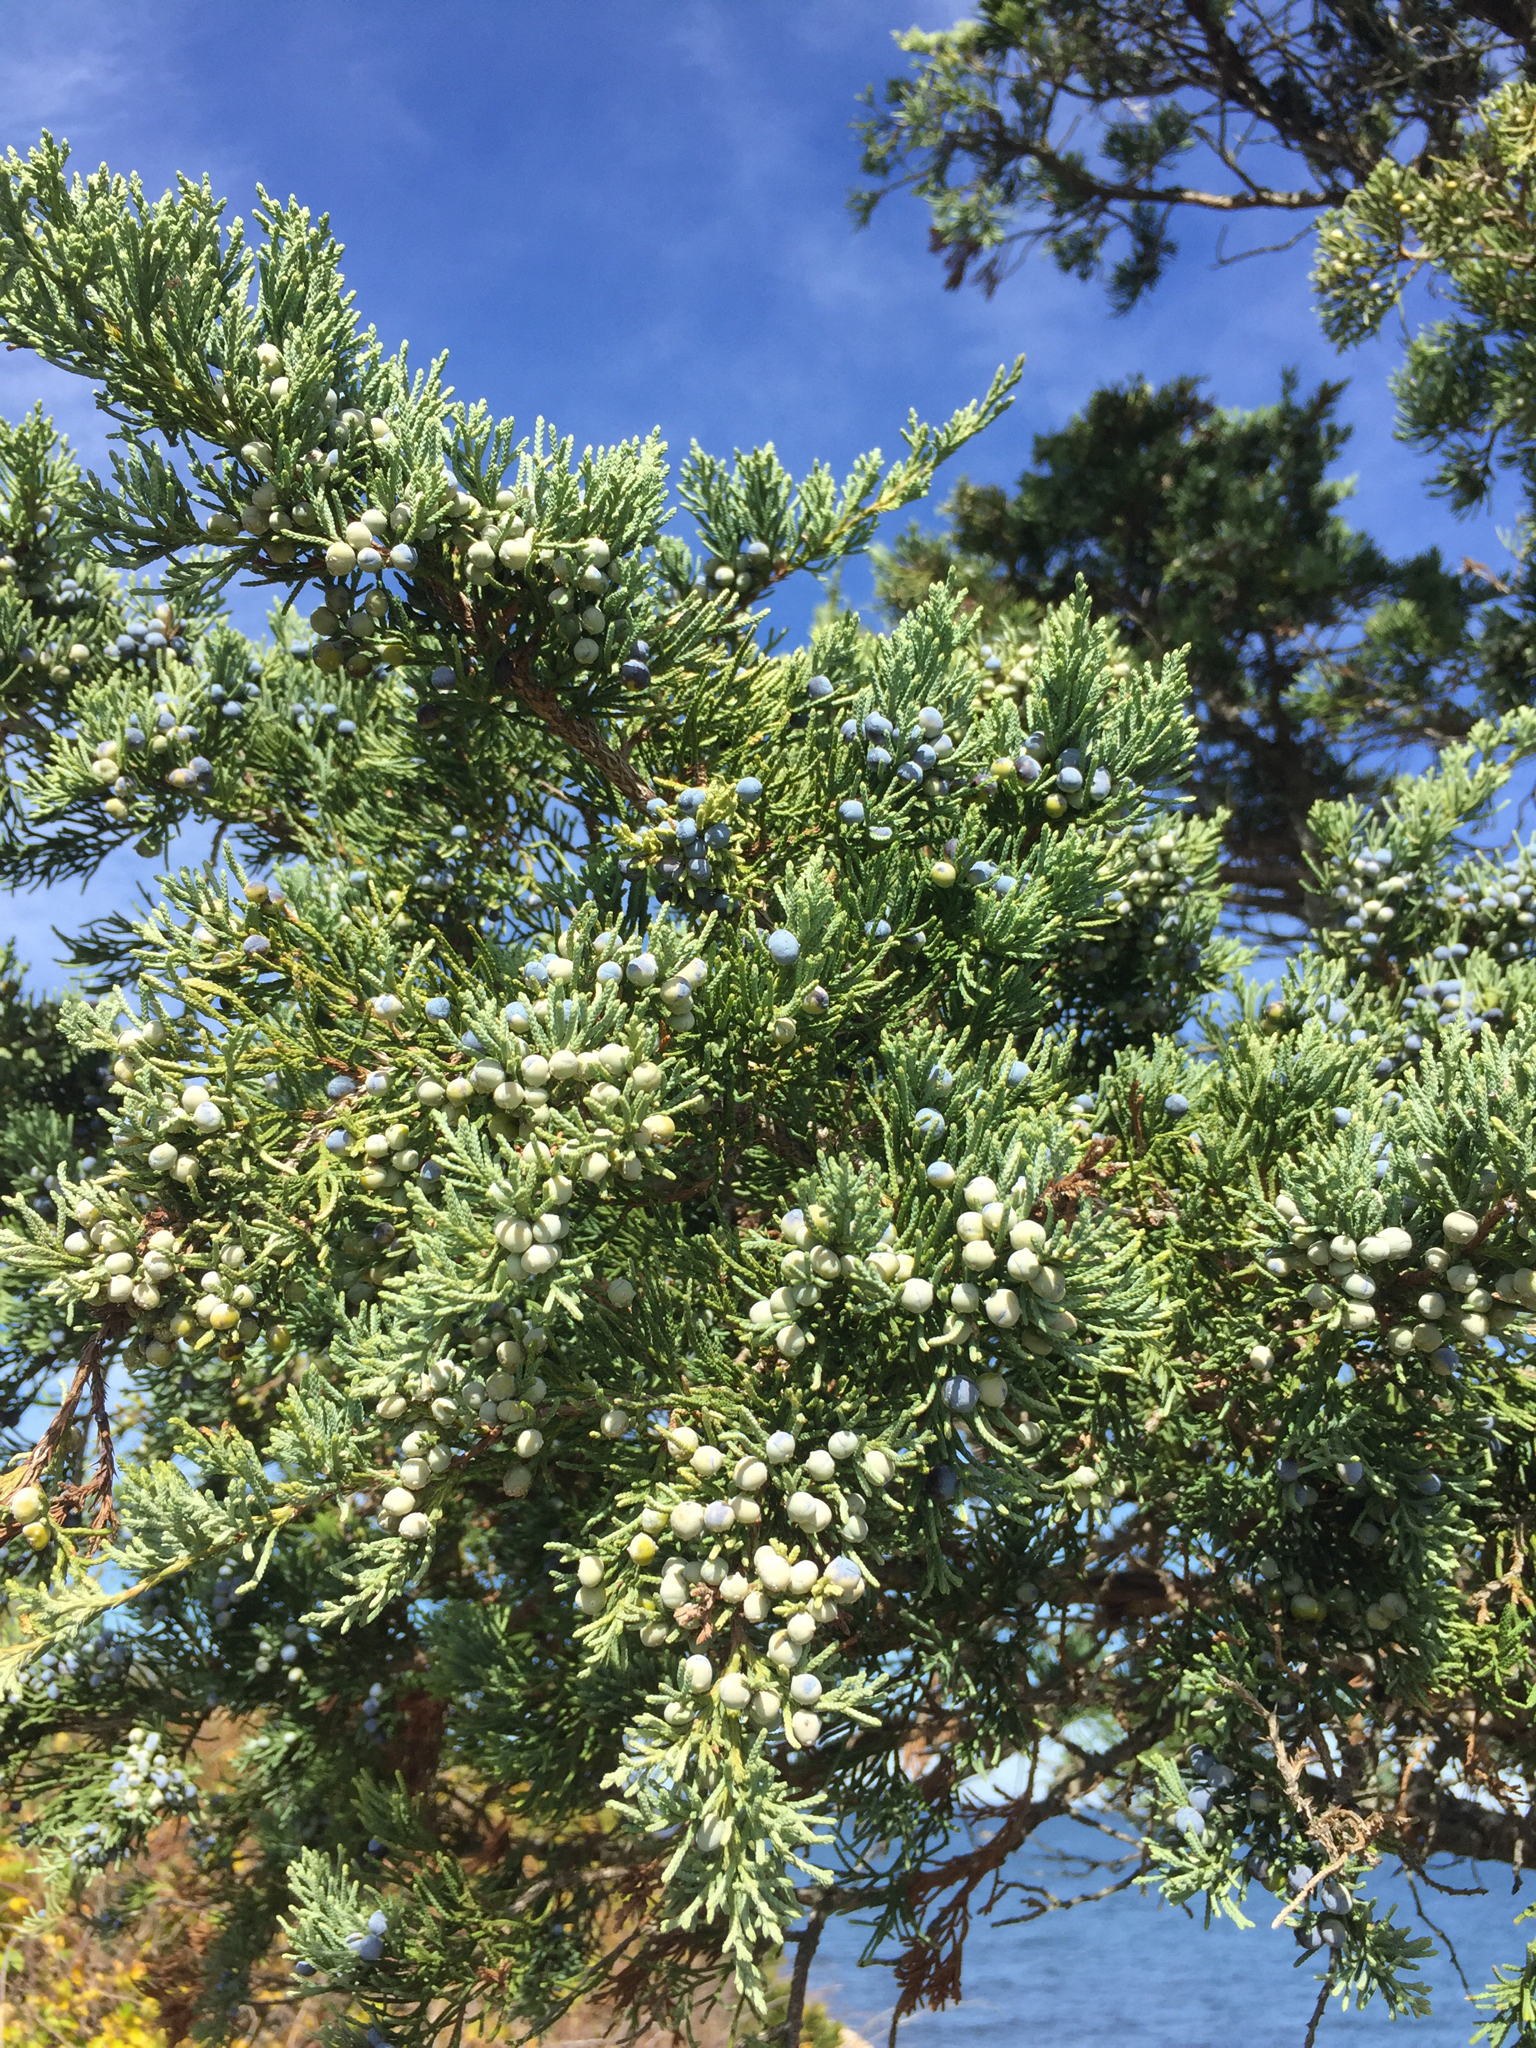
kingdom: Plantae
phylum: Tracheophyta
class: Pinopsida
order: Pinales
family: Cupressaceae
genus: Juniperus
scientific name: Juniperus virginiana
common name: Red juniper
